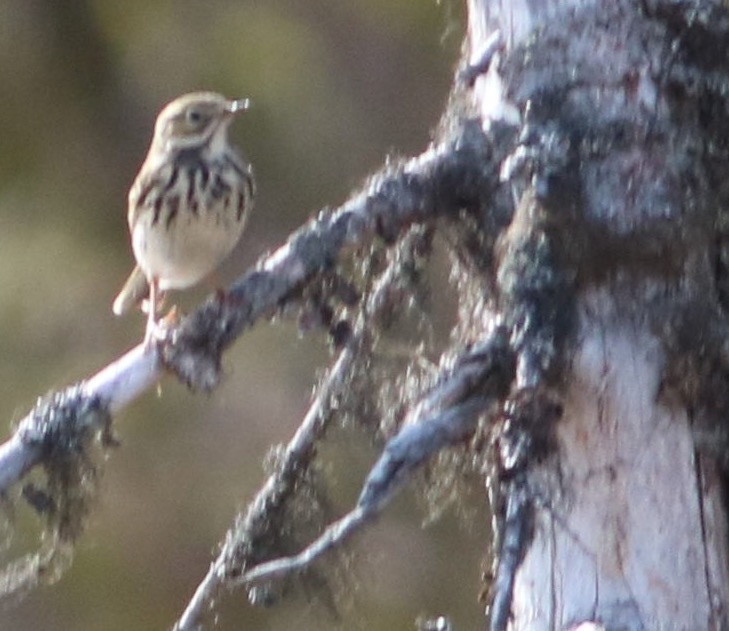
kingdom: Animalia
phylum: Chordata
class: Aves
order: Passeriformes
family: Motacillidae
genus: Anthus
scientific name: Anthus trivialis
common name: Tree pipit
